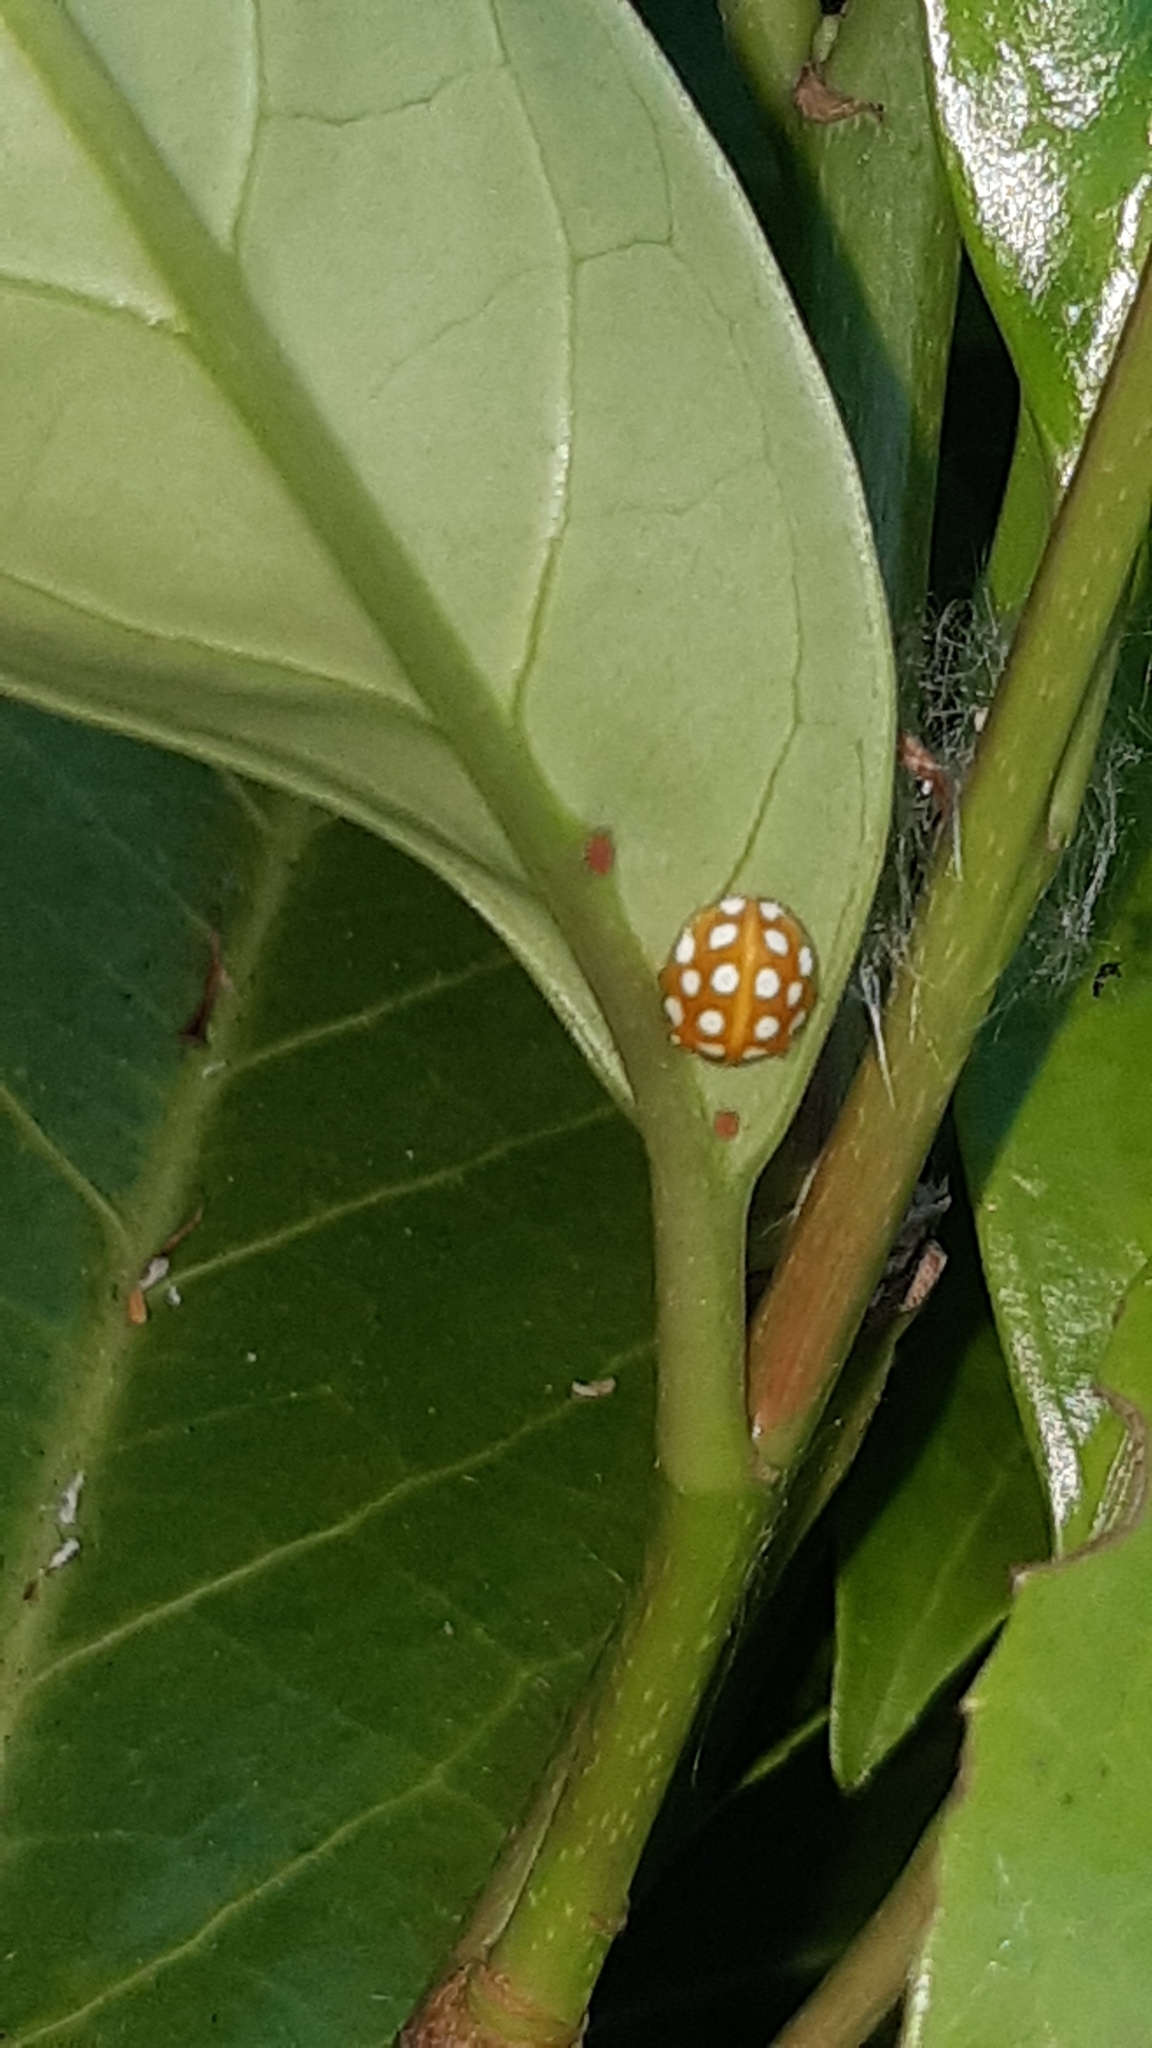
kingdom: Animalia
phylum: Arthropoda
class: Insecta
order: Coleoptera
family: Coccinellidae
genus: Halyzia
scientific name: Halyzia sedecimguttata
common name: Orange ladybird
